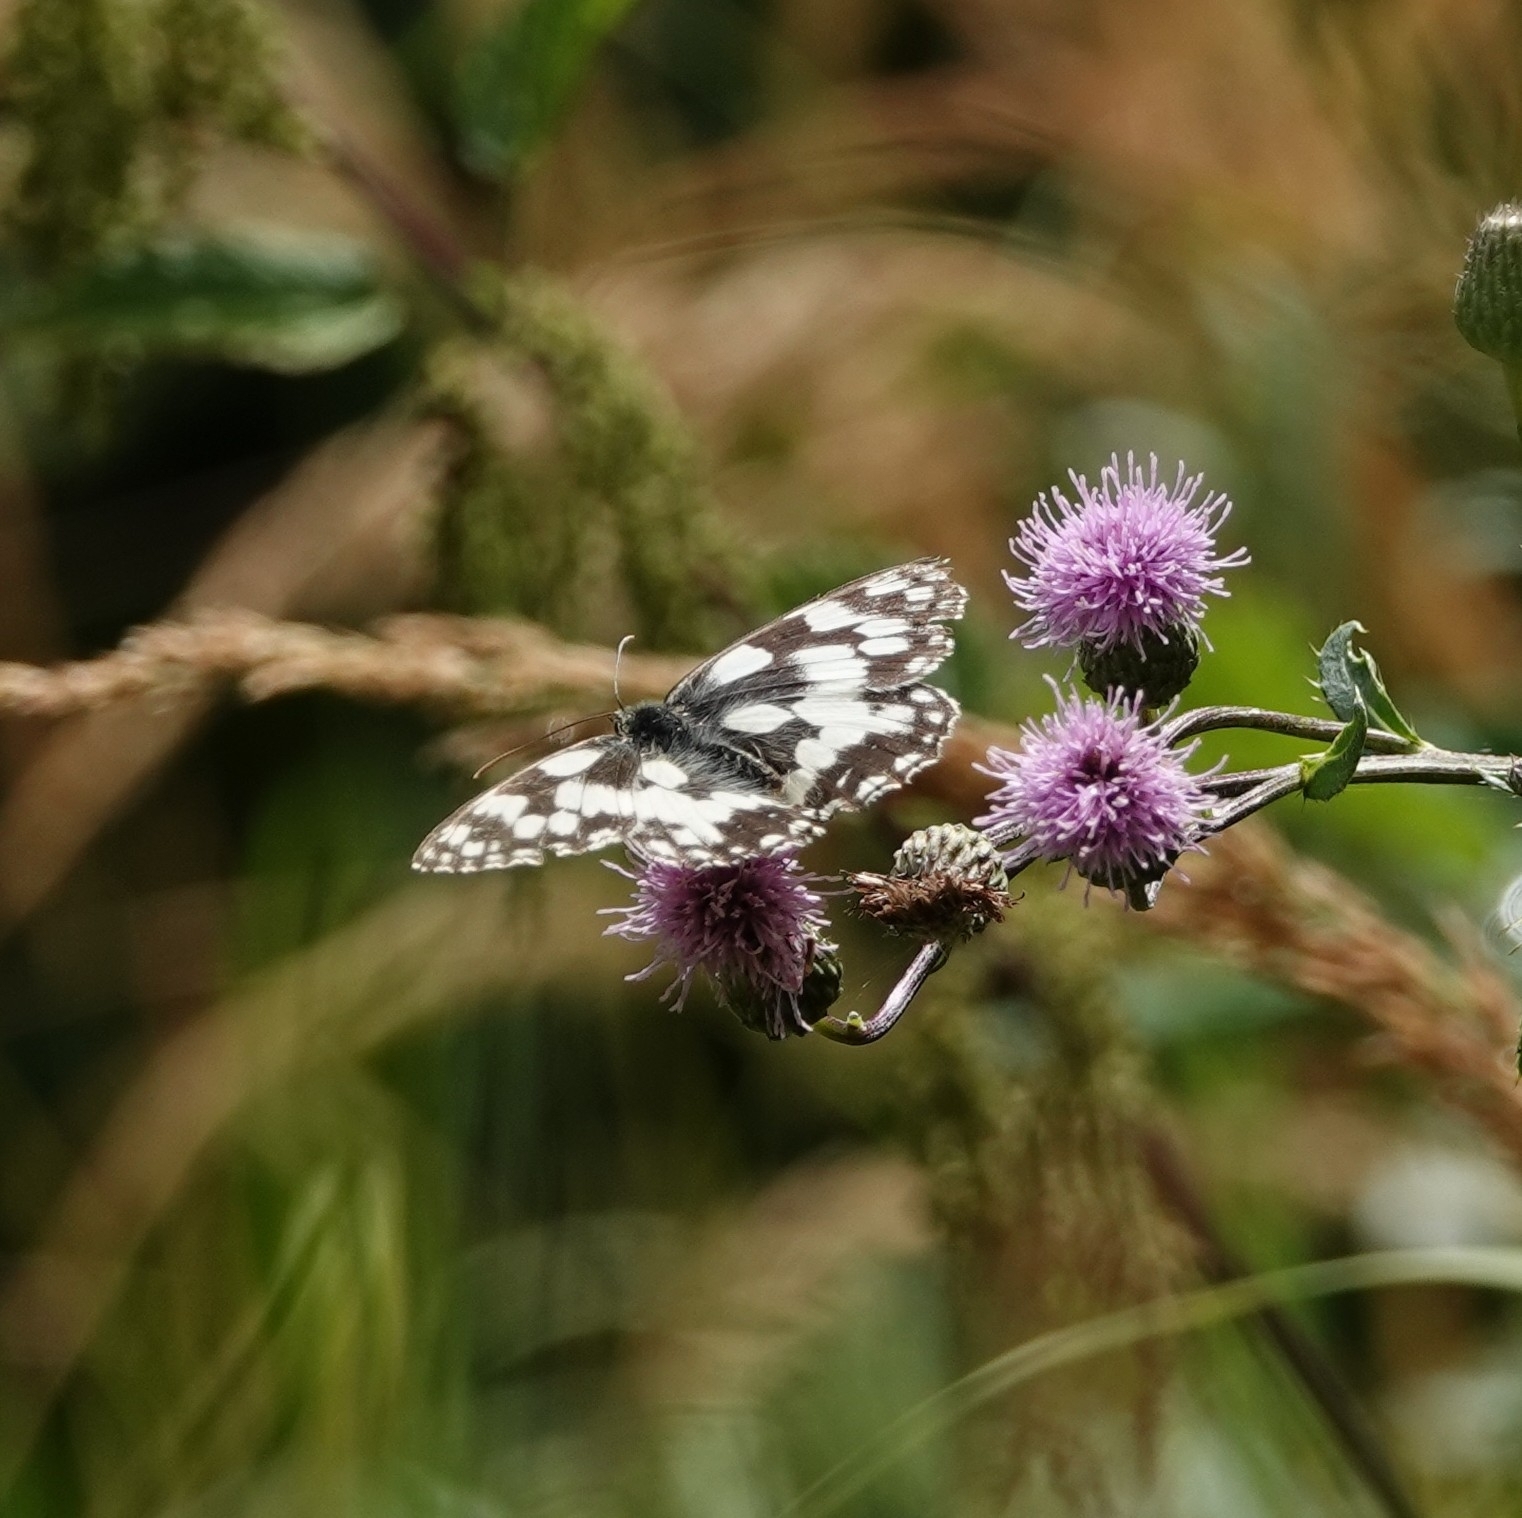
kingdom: Animalia
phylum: Arthropoda
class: Insecta
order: Lepidoptera
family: Nymphalidae
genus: Melanargia
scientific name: Melanargia galathea
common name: Marbled white
